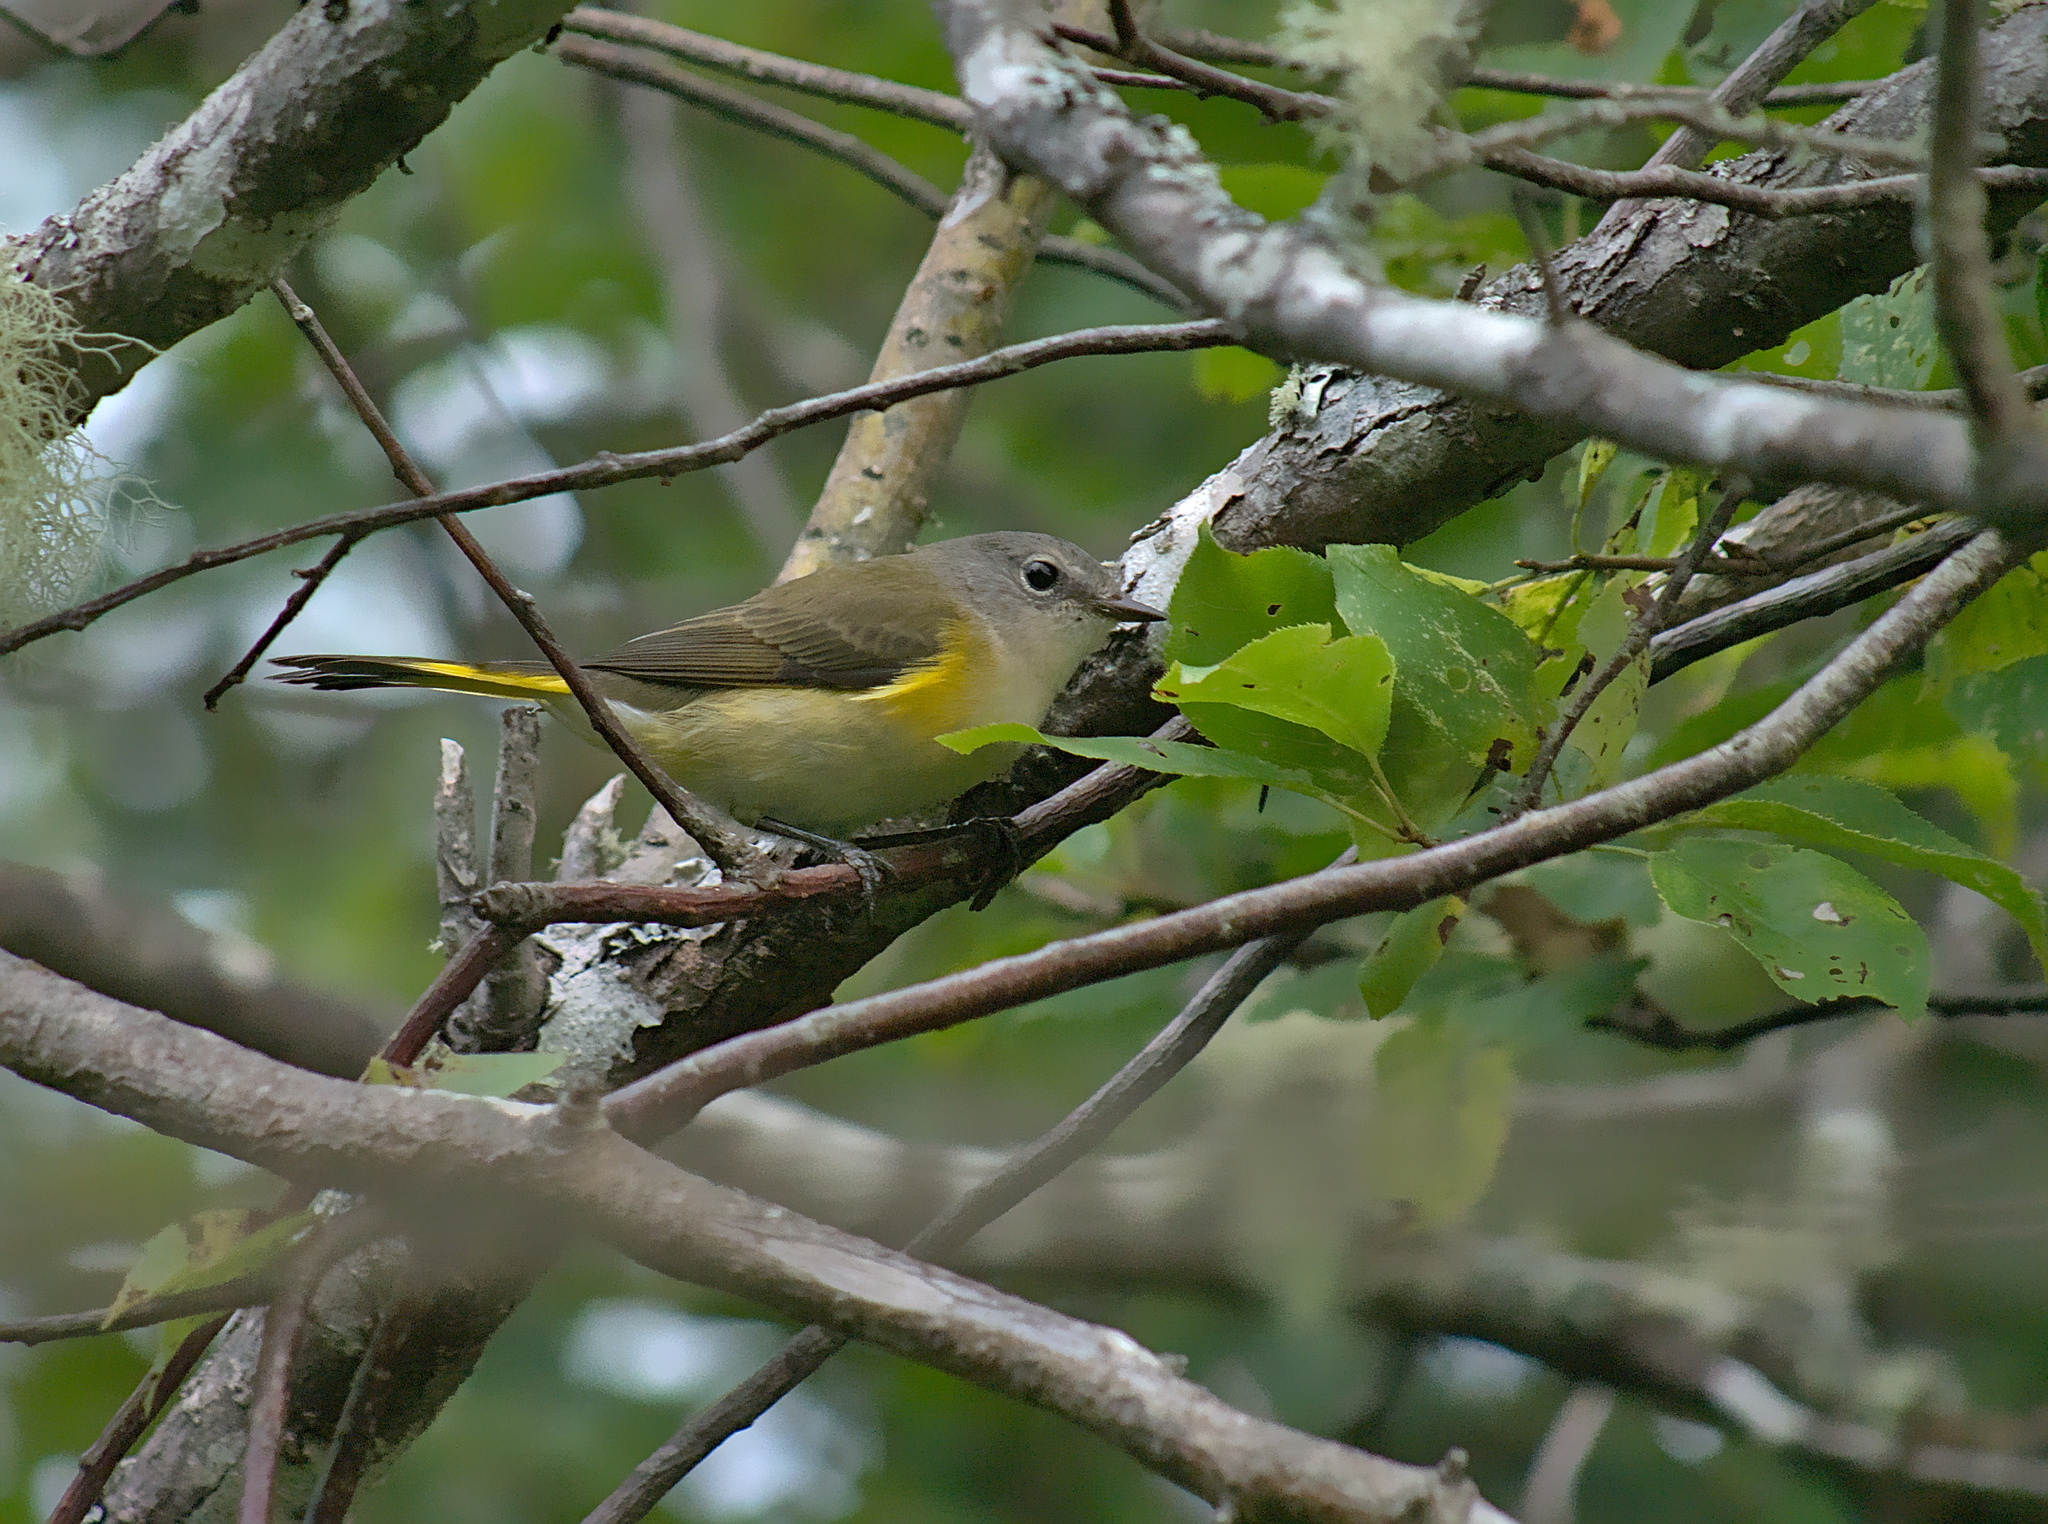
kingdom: Animalia
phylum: Chordata
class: Aves
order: Passeriformes
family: Parulidae
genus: Setophaga
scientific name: Setophaga ruticilla
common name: American redstart
